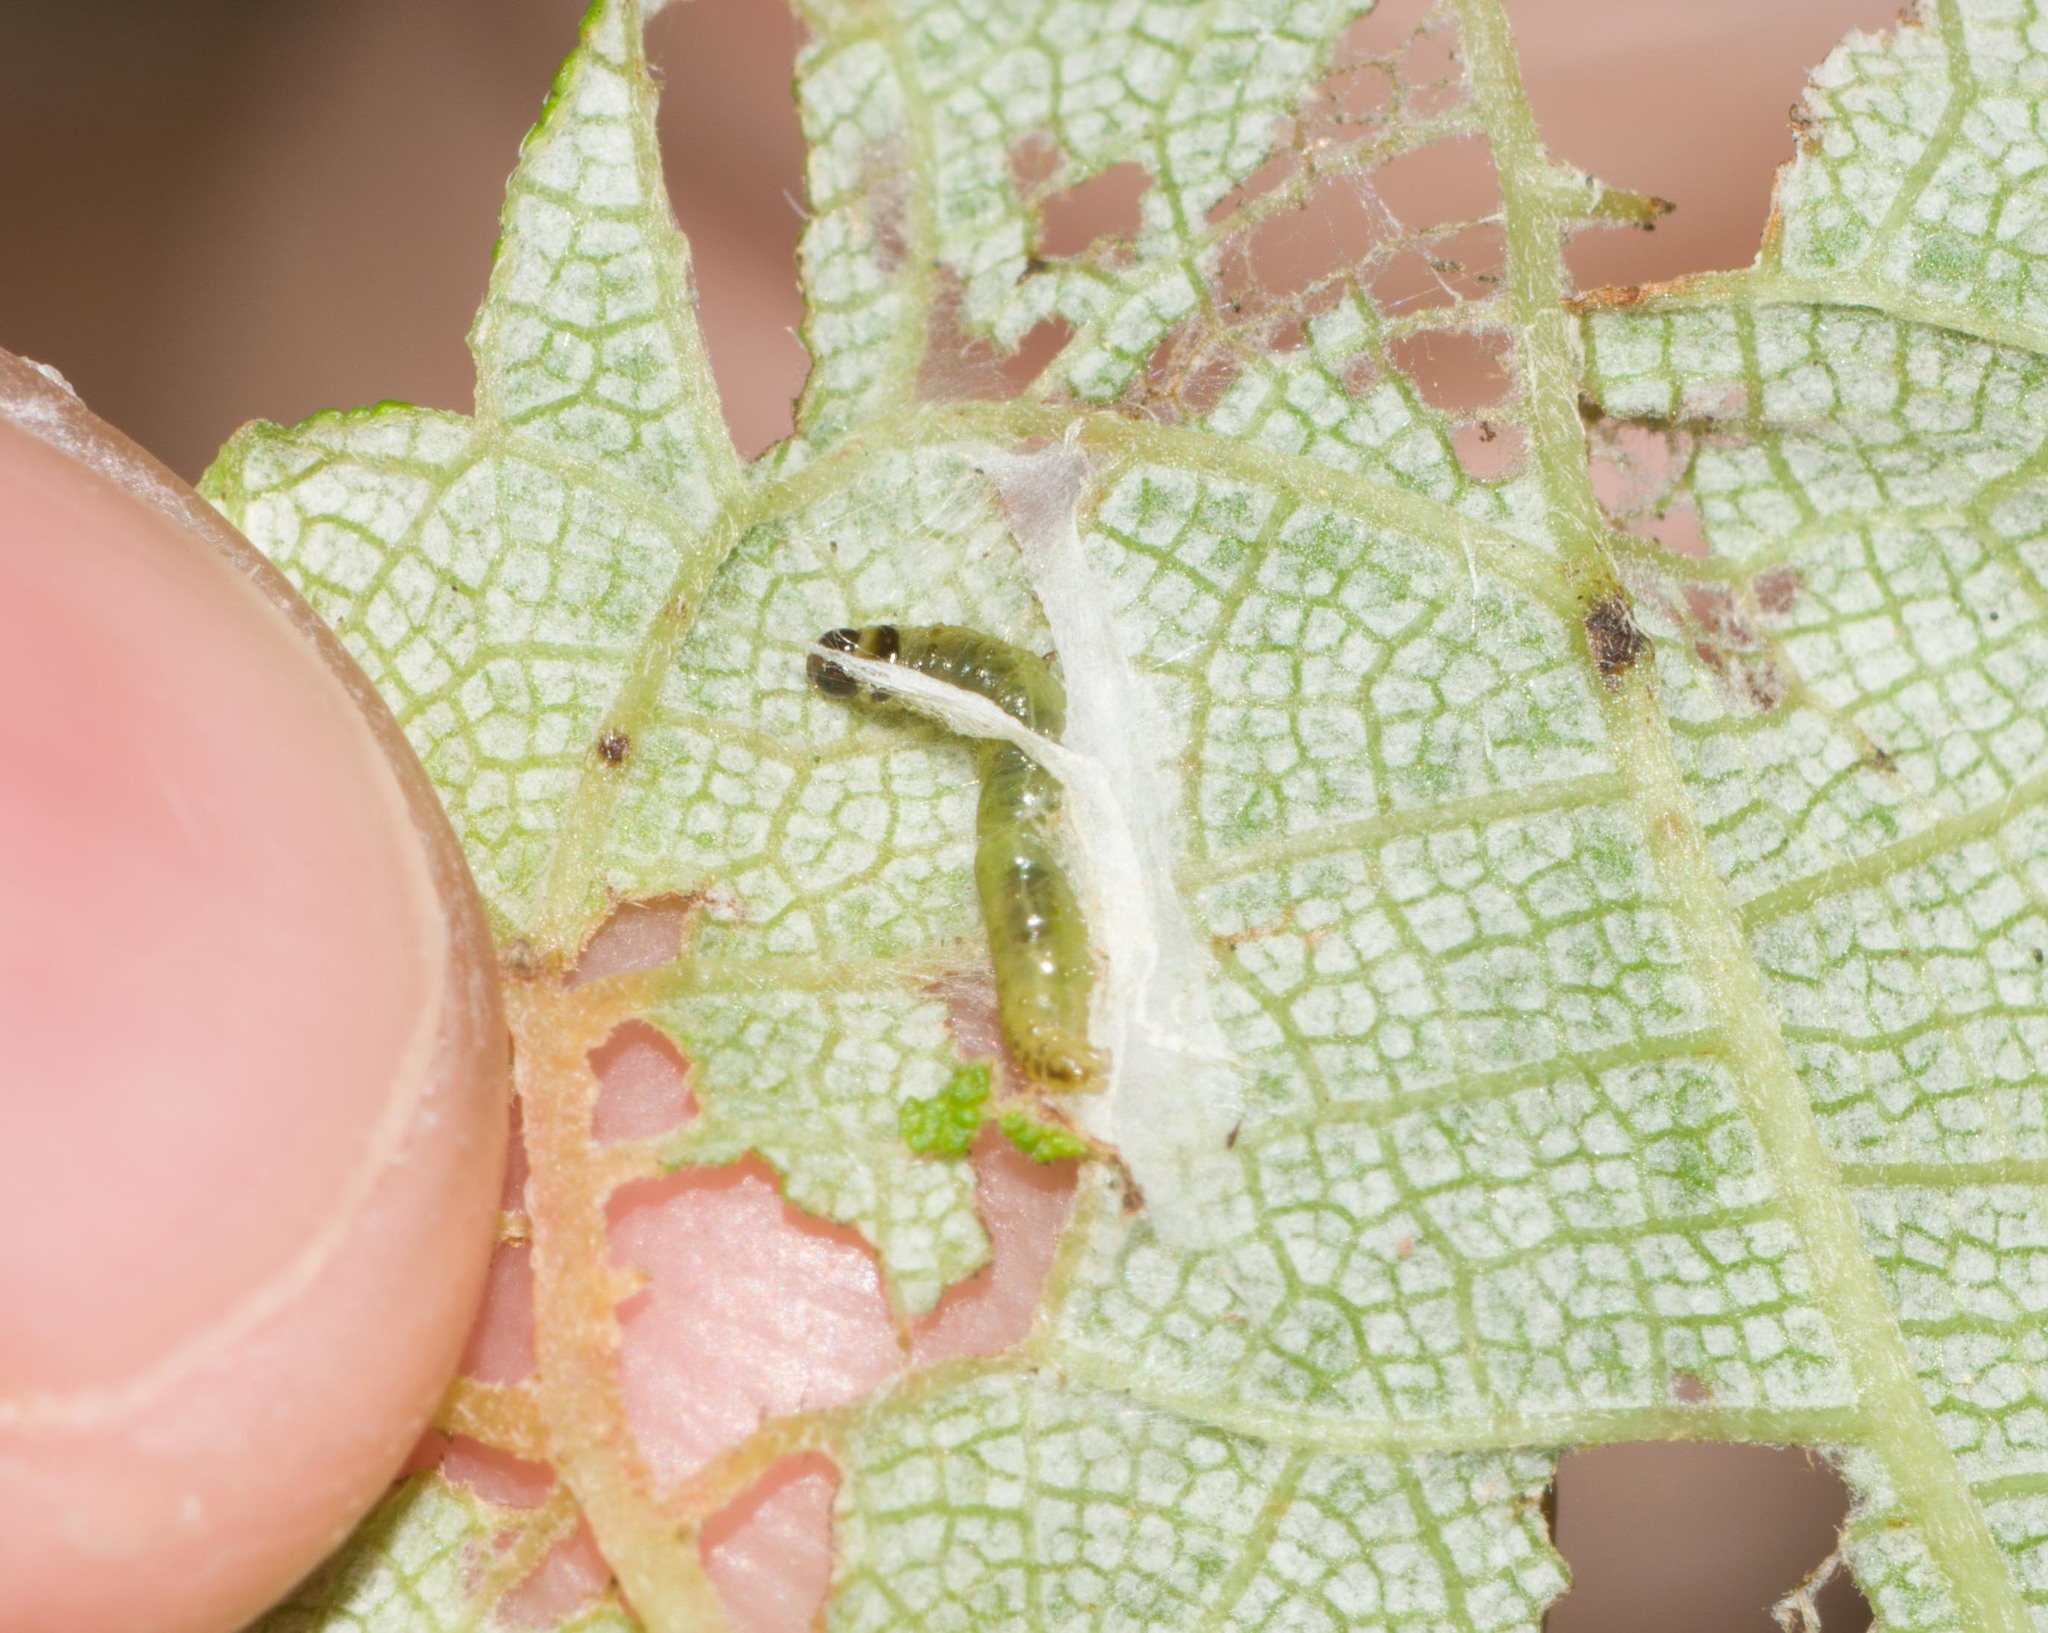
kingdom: Animalia
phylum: Arthropoda
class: Insecta
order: Lepidoptera
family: Crambidae
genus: Udea
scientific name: Udea stellata
